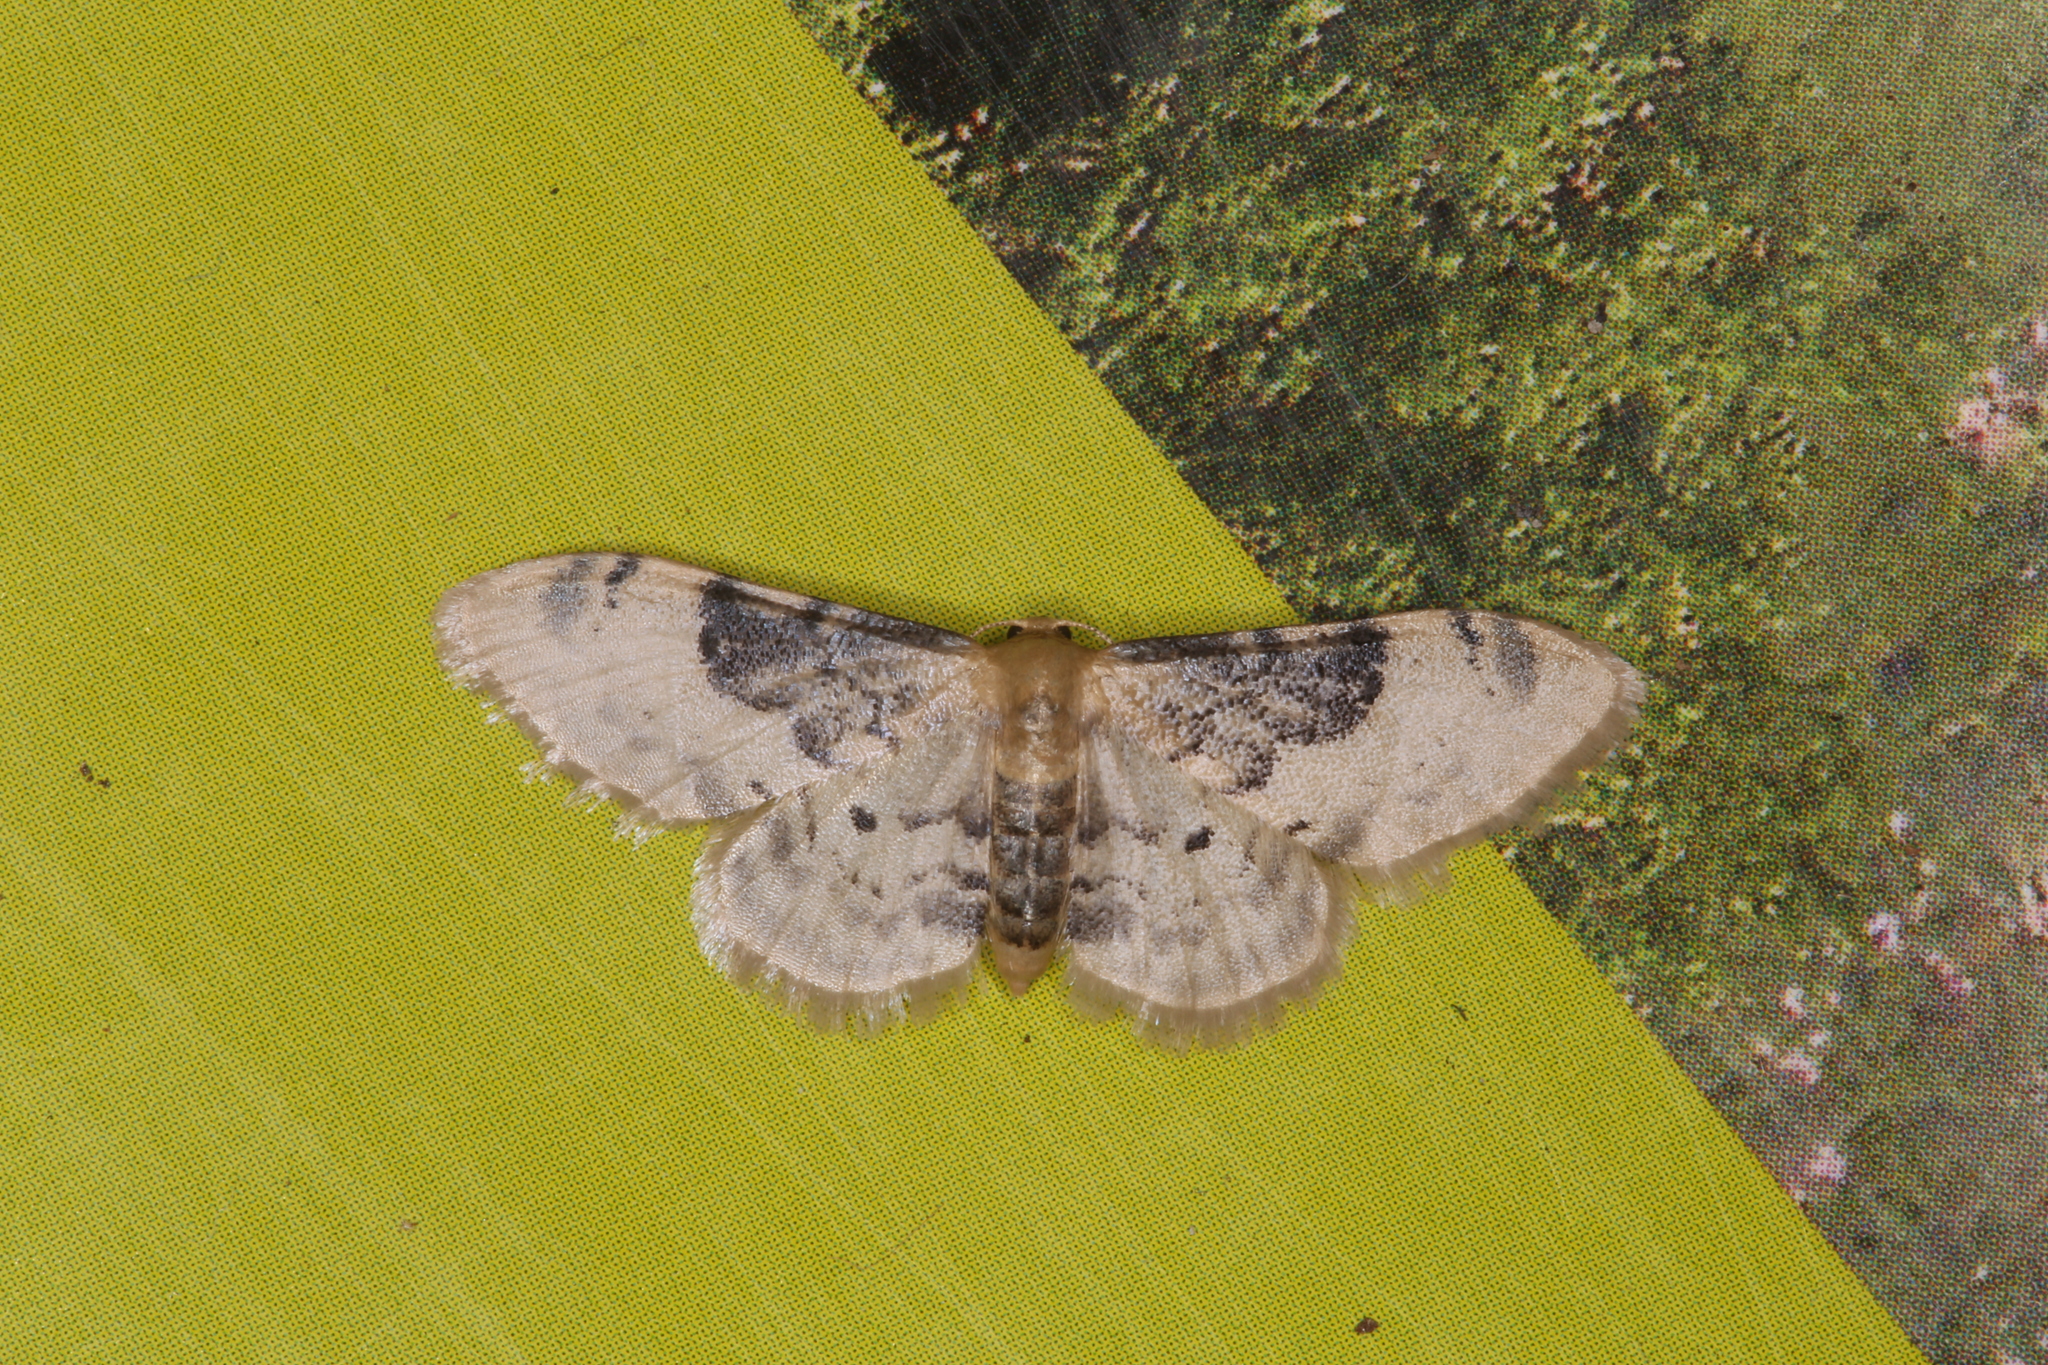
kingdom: Animalia
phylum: Arthropoda
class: Insecta
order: Lepidoptera
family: Geometridae
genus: Idaea
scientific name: Idaea filicata
